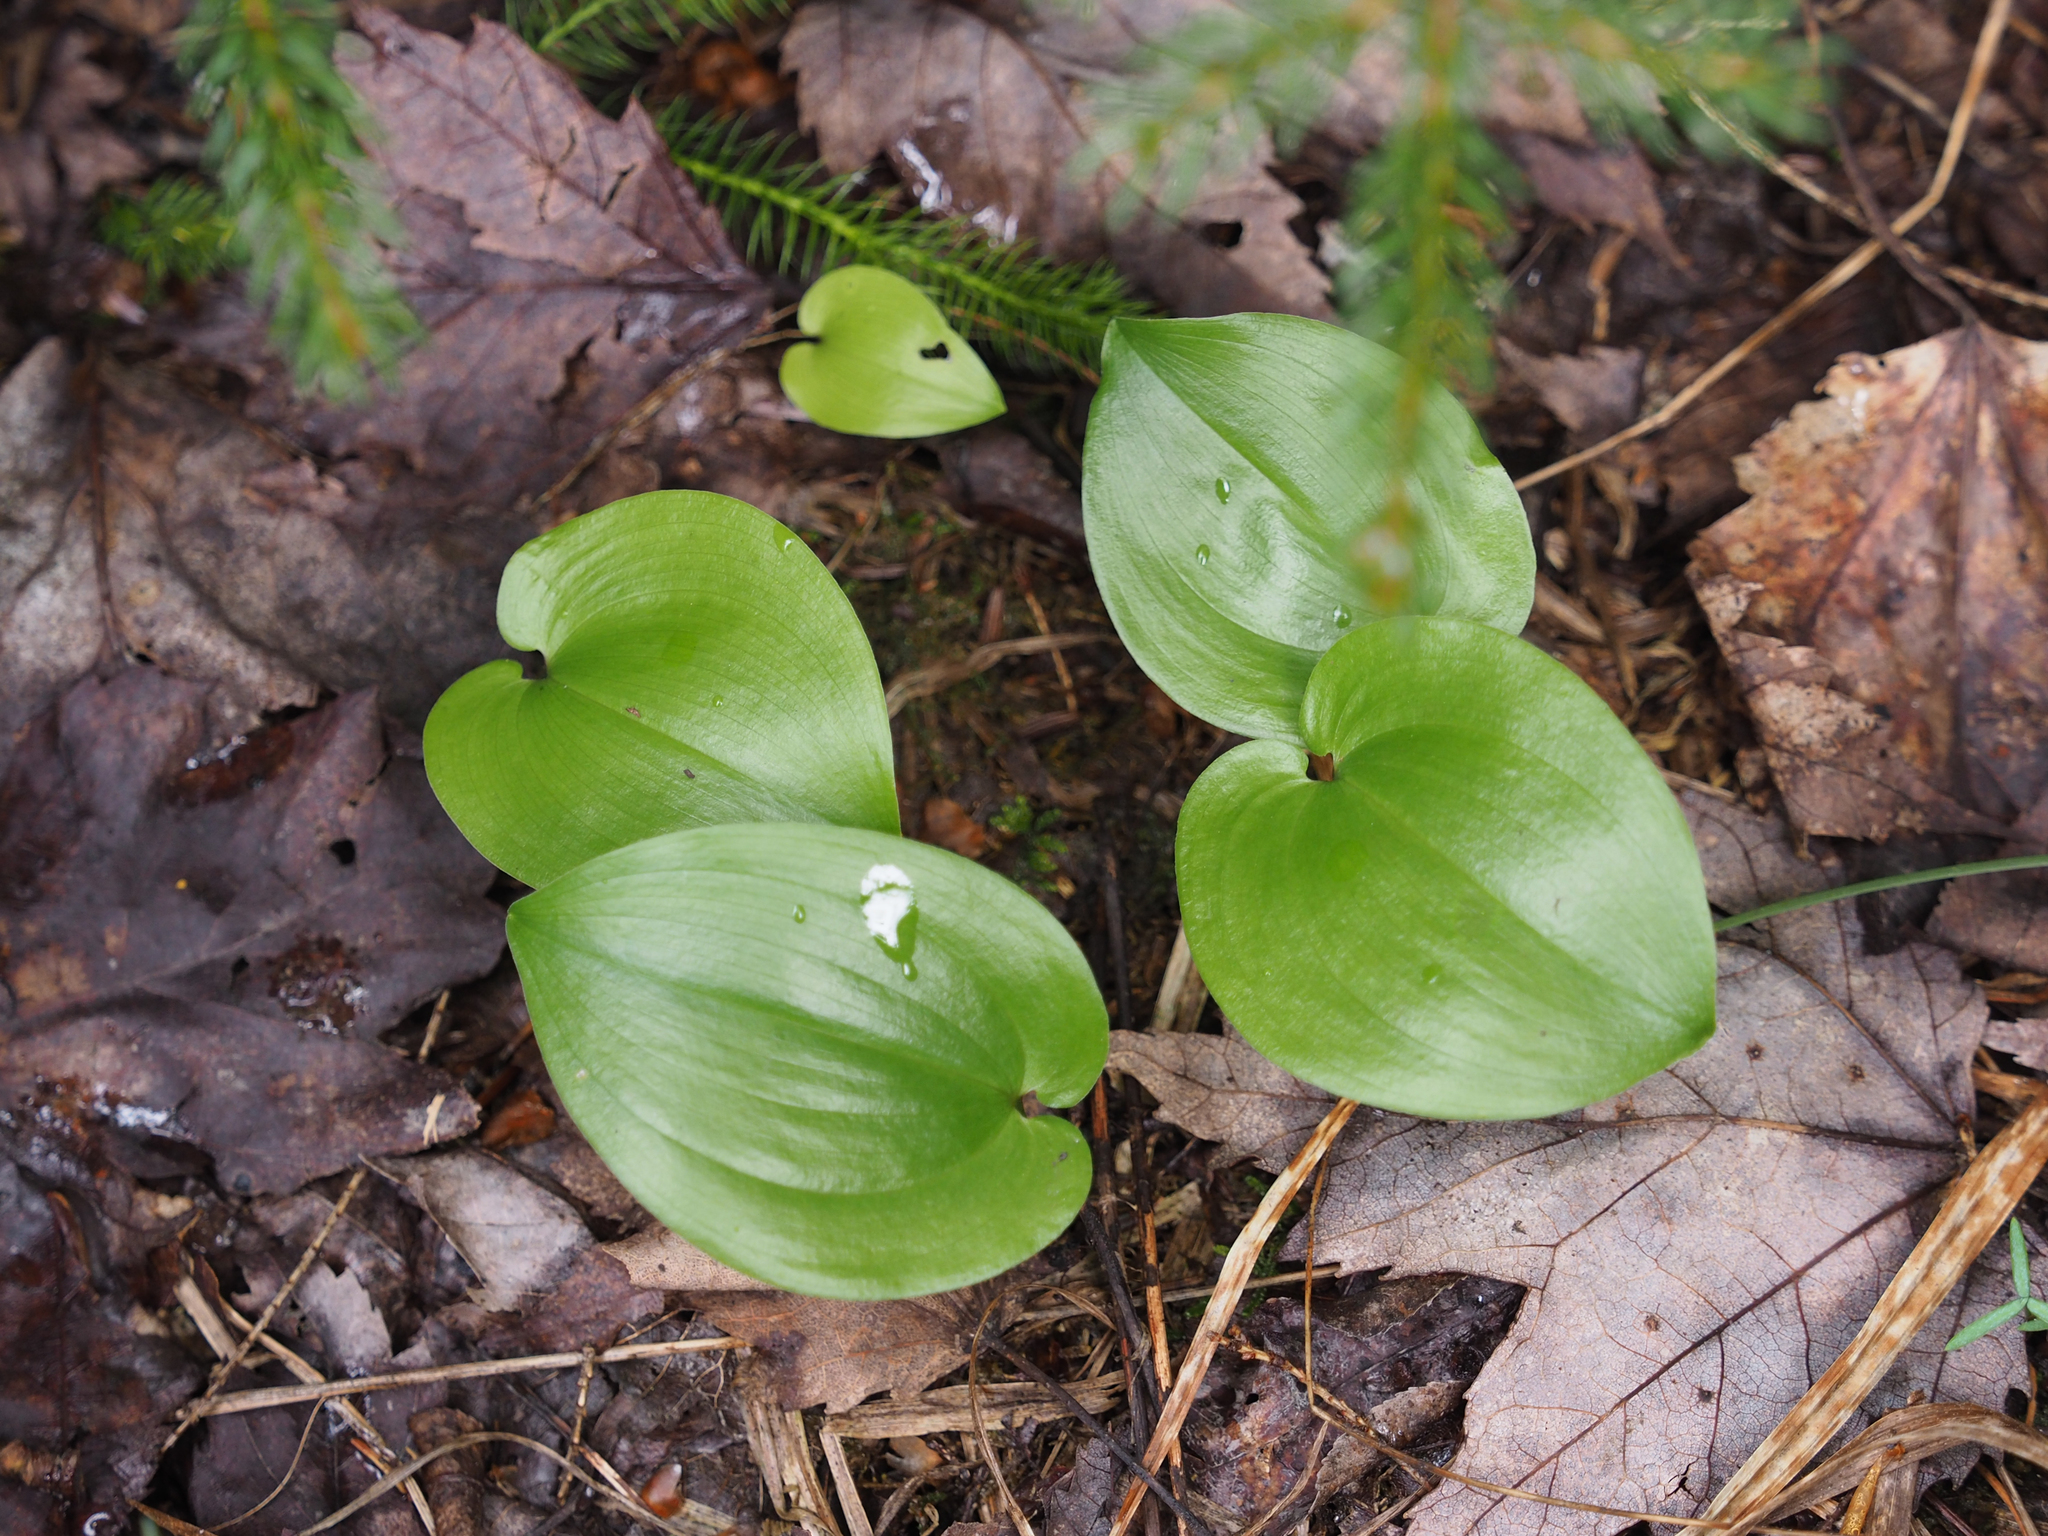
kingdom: Plantae
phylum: Tracheophyta
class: Liliopsida
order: Asparagales
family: Asparagaceae
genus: Maianthemum
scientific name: Maianthemum canadense
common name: False lily-of-the-valley
